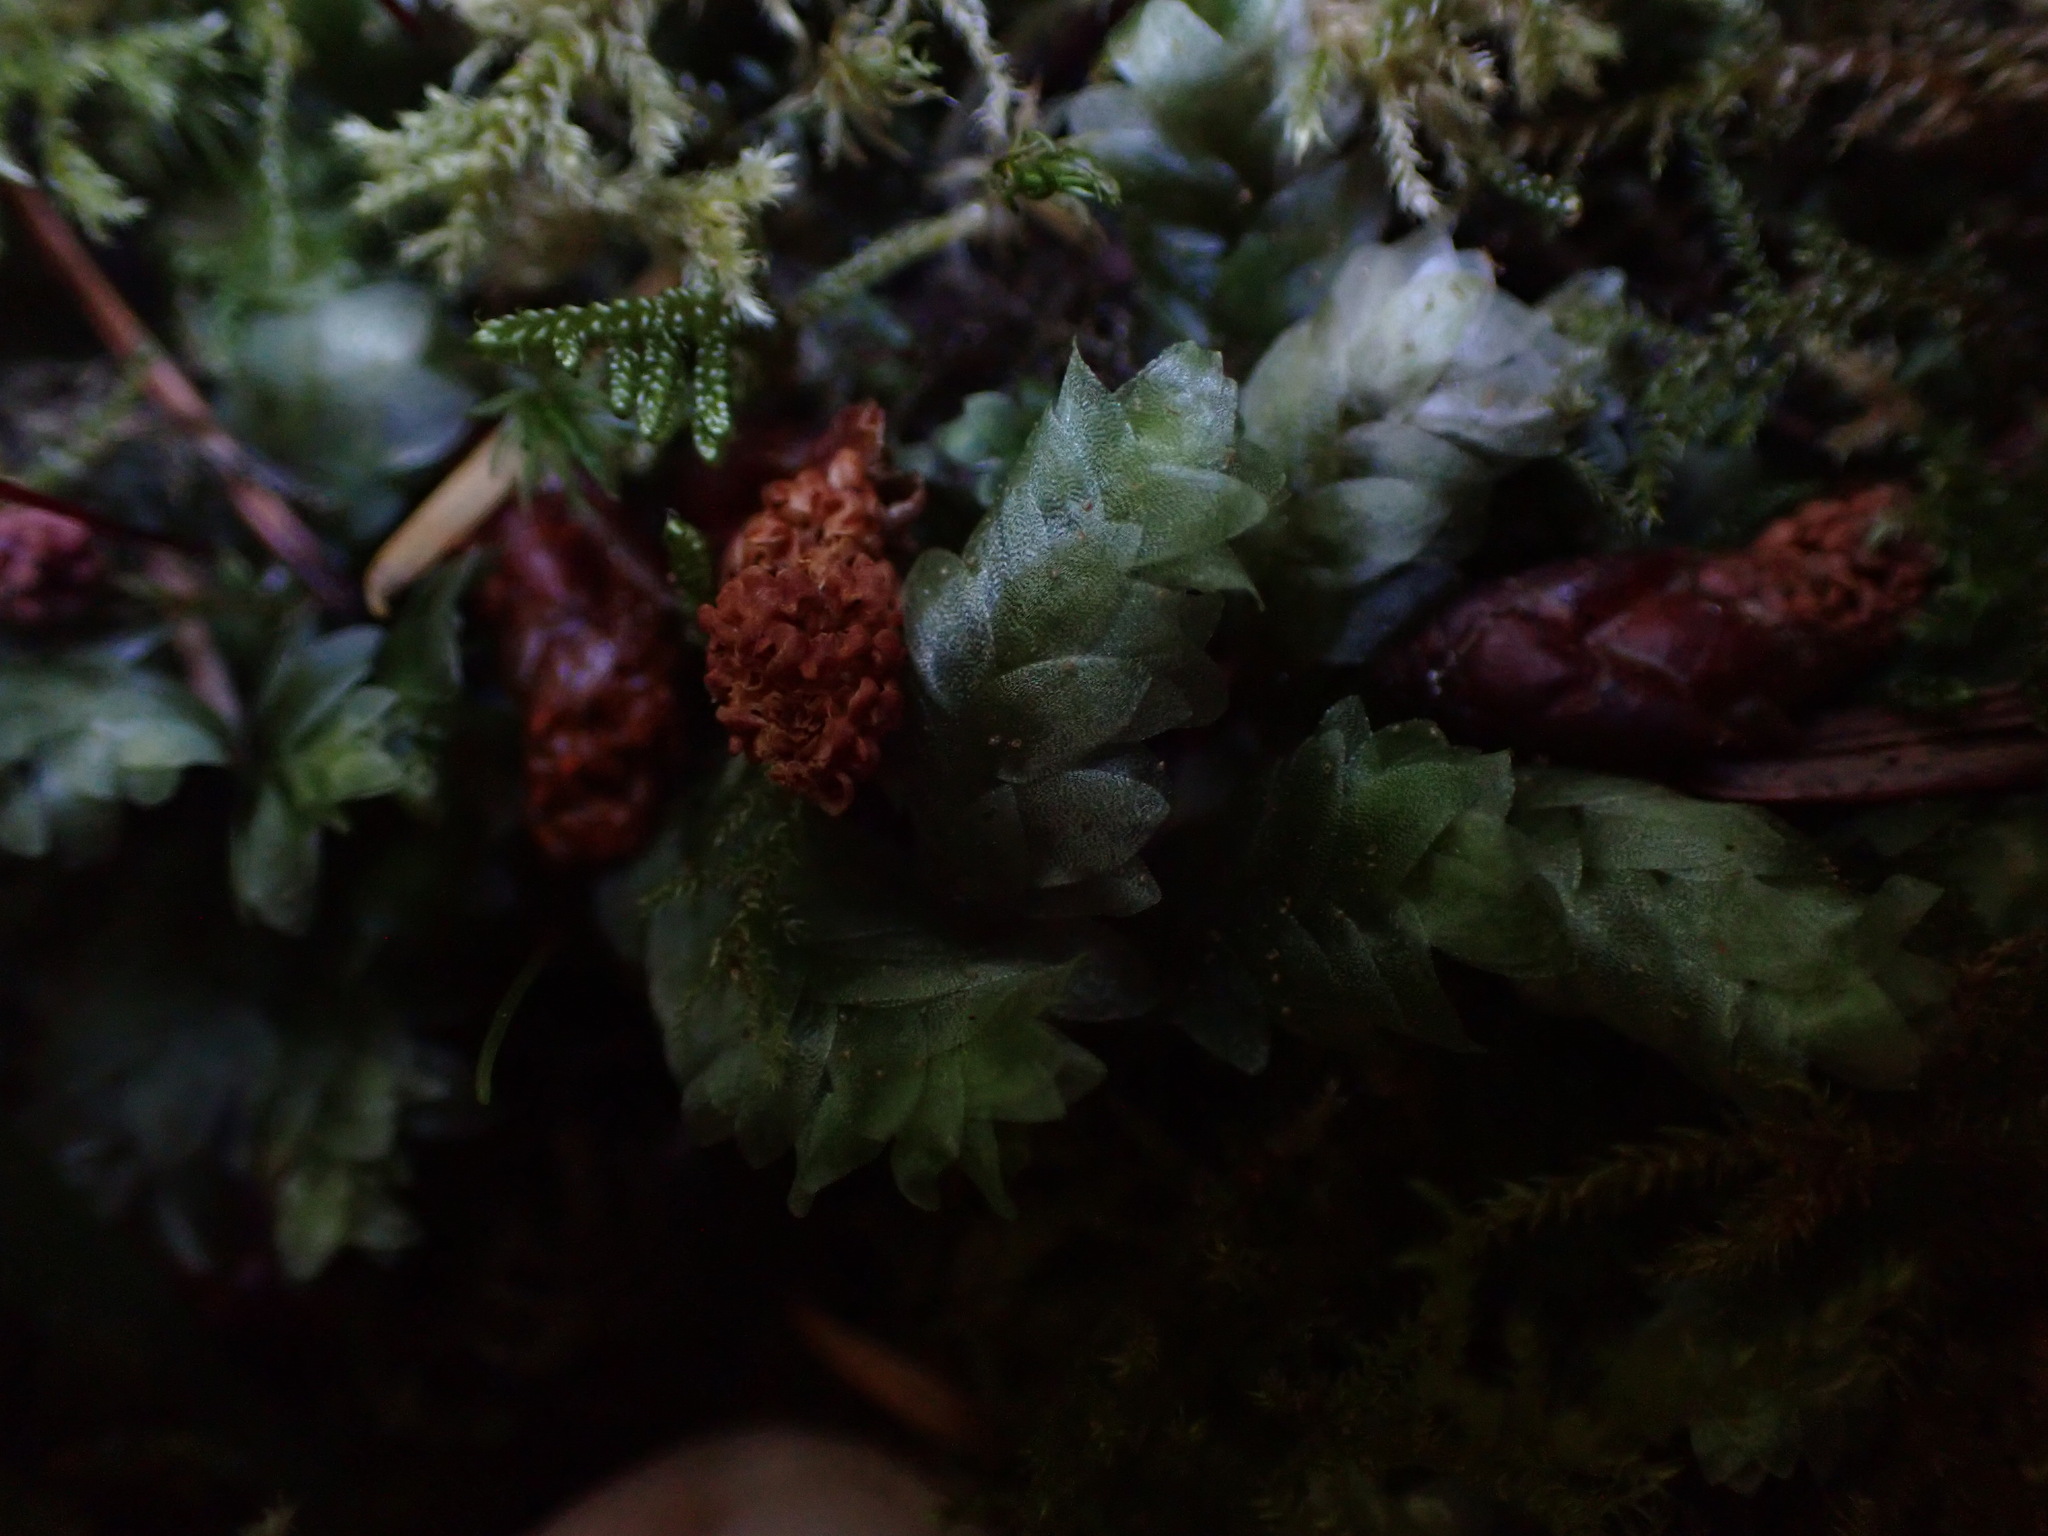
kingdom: Plantae
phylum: Bryophyta
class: Bryopsida
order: Hookeriales
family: Hookeriaceae
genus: Hookeria
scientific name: Hookeria lucens
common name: Shining hookeria
